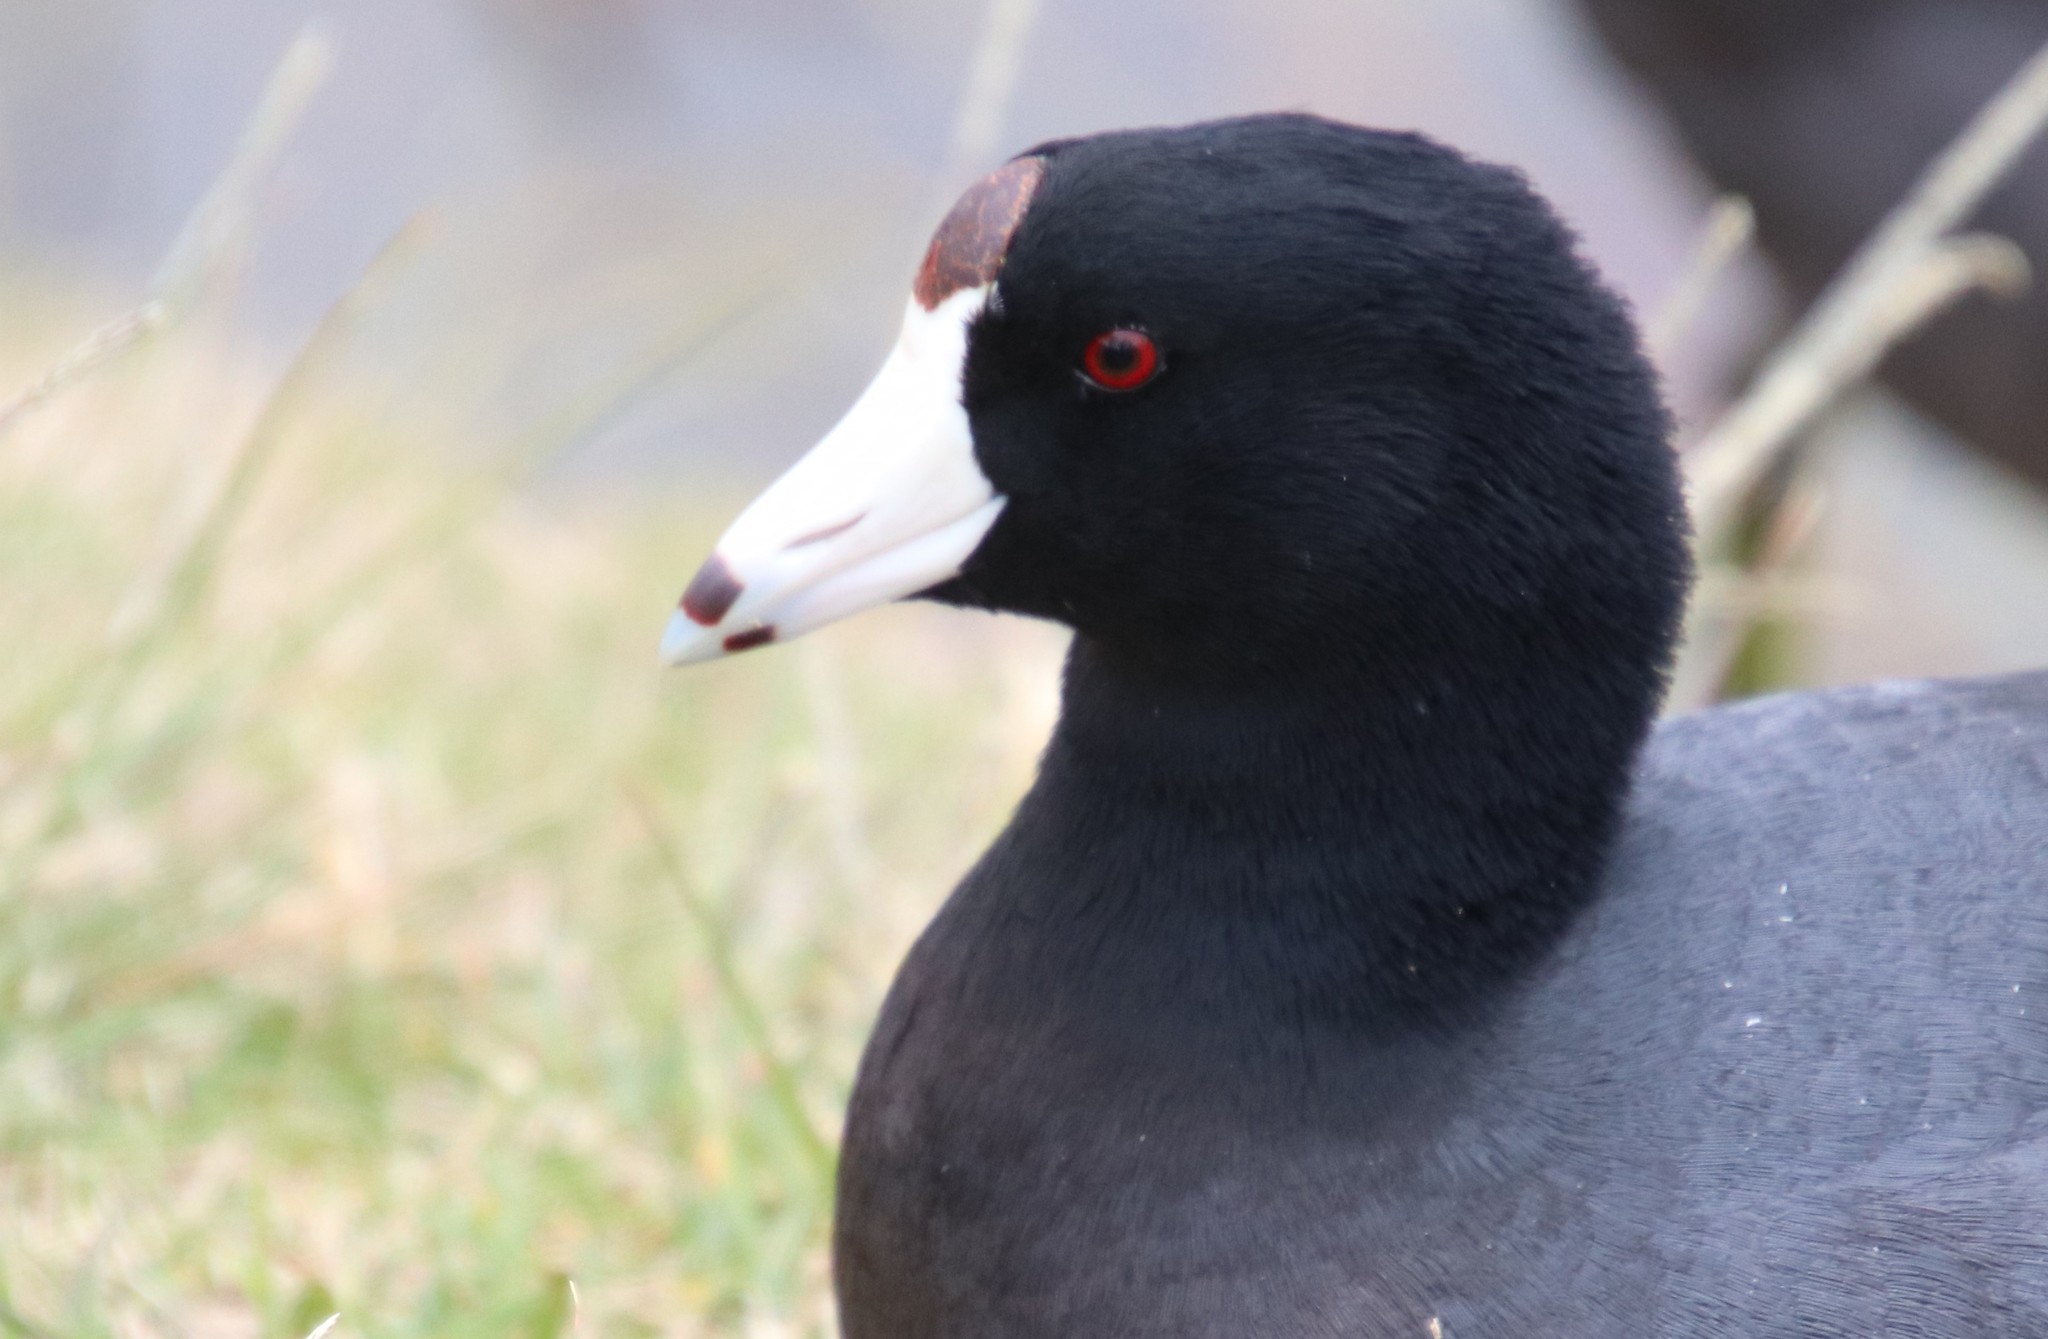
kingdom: Animalia
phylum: Chordata
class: Aves
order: Gruiformes
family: Rallidae
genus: Fulica
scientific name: Fulica americana
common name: American coot
